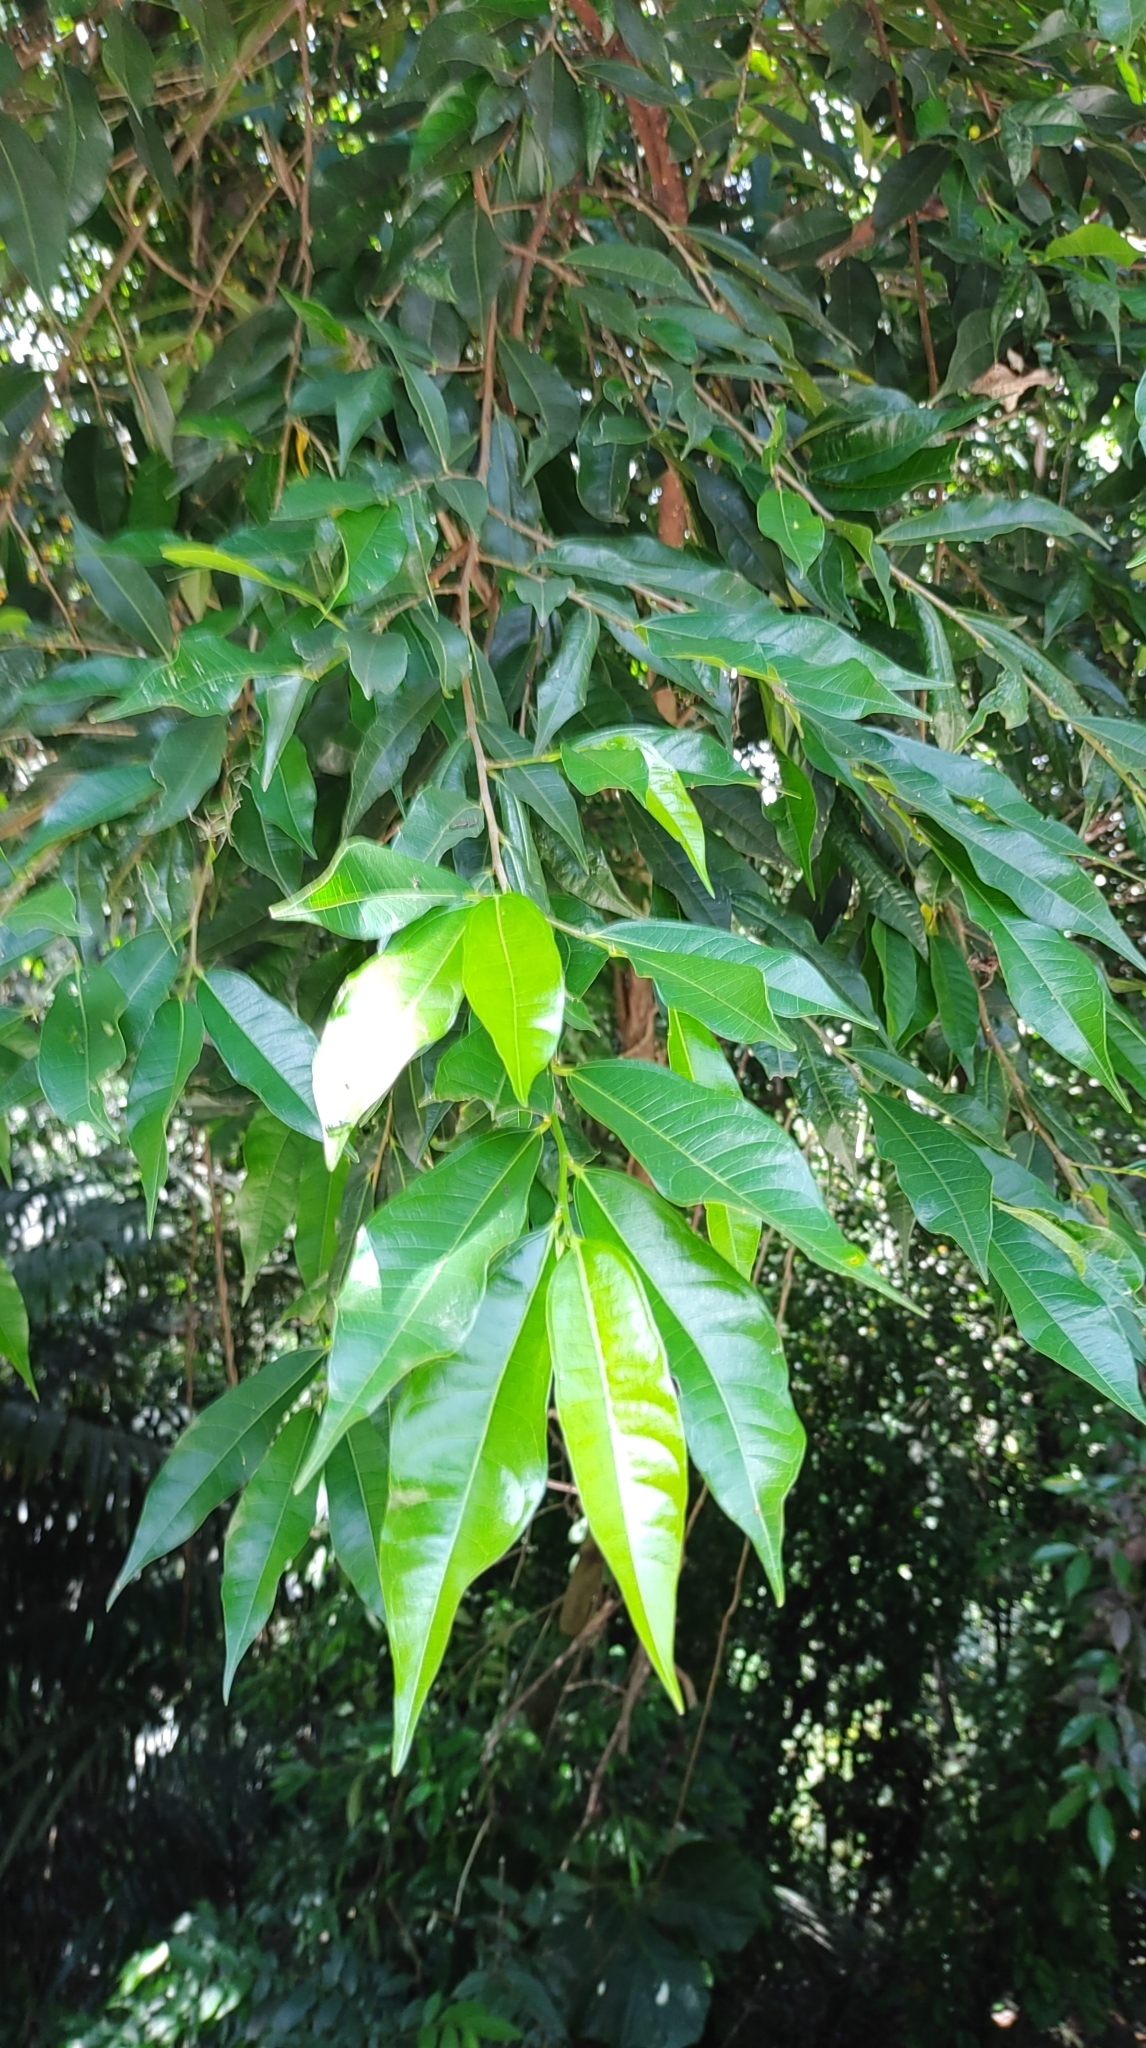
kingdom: Plantae
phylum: Tracheophyta
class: Magnoliopsida
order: Rosales
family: Moraceae
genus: Ficus
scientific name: Ficus ampelos
